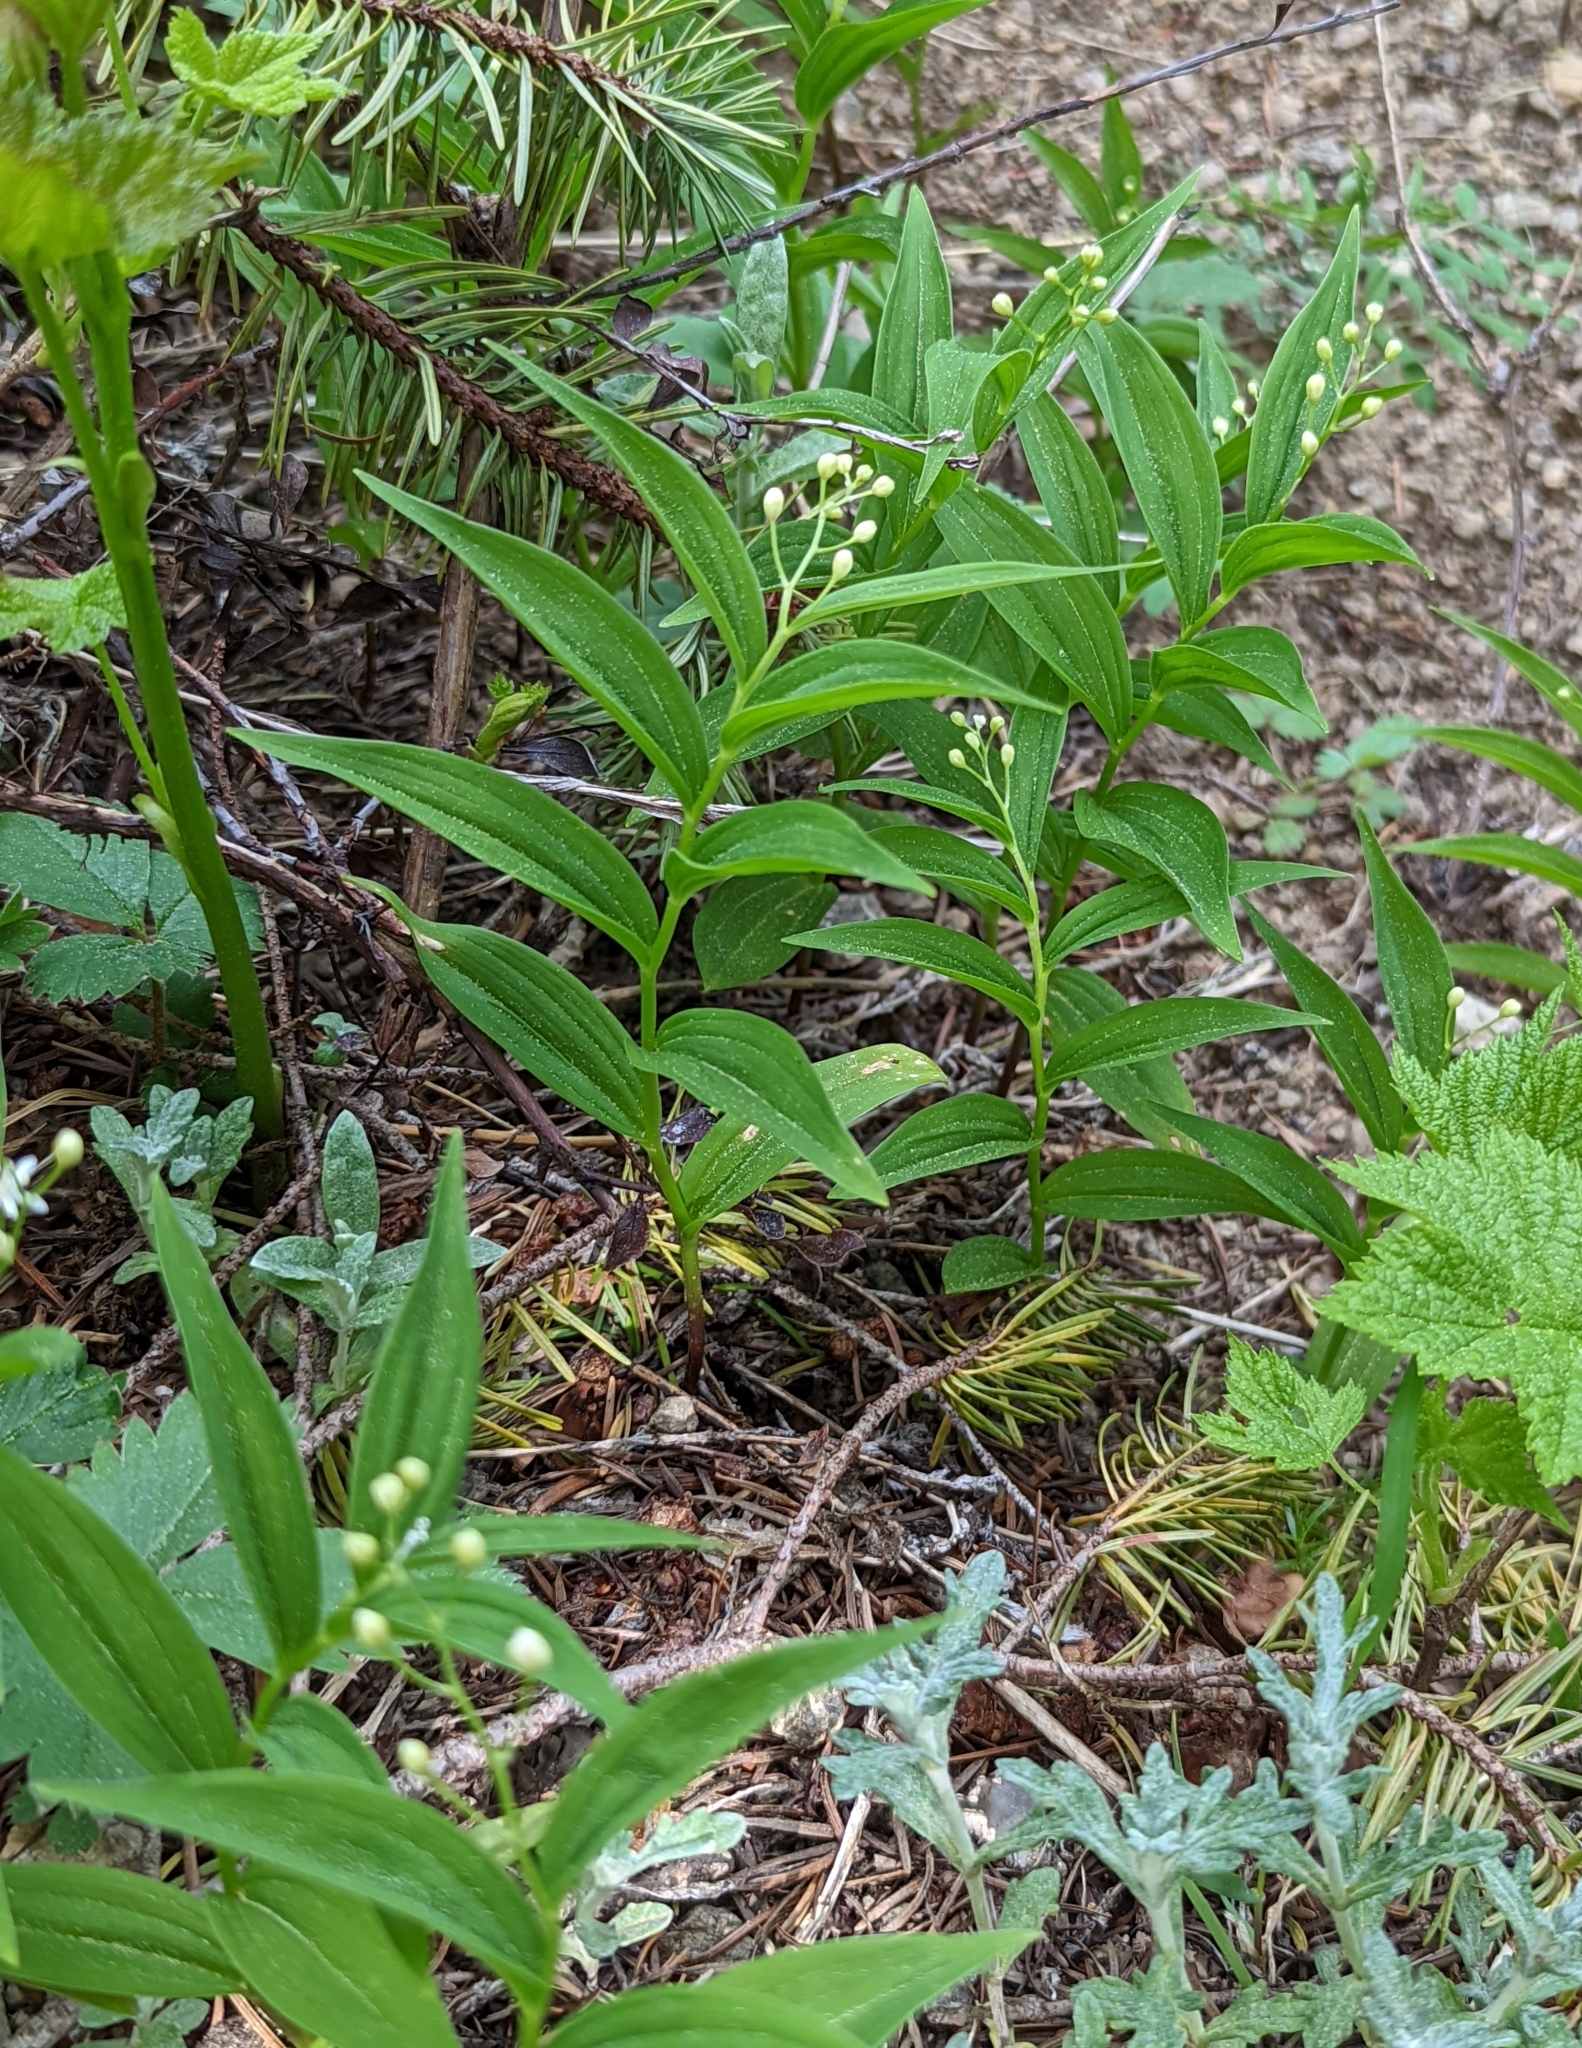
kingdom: Plantae
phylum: Tracheophyta
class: Liliopsida
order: Asparagales
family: Asparagaceae
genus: Maianthemum
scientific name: Maianthemum stellatum
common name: Little false solomon's seal
